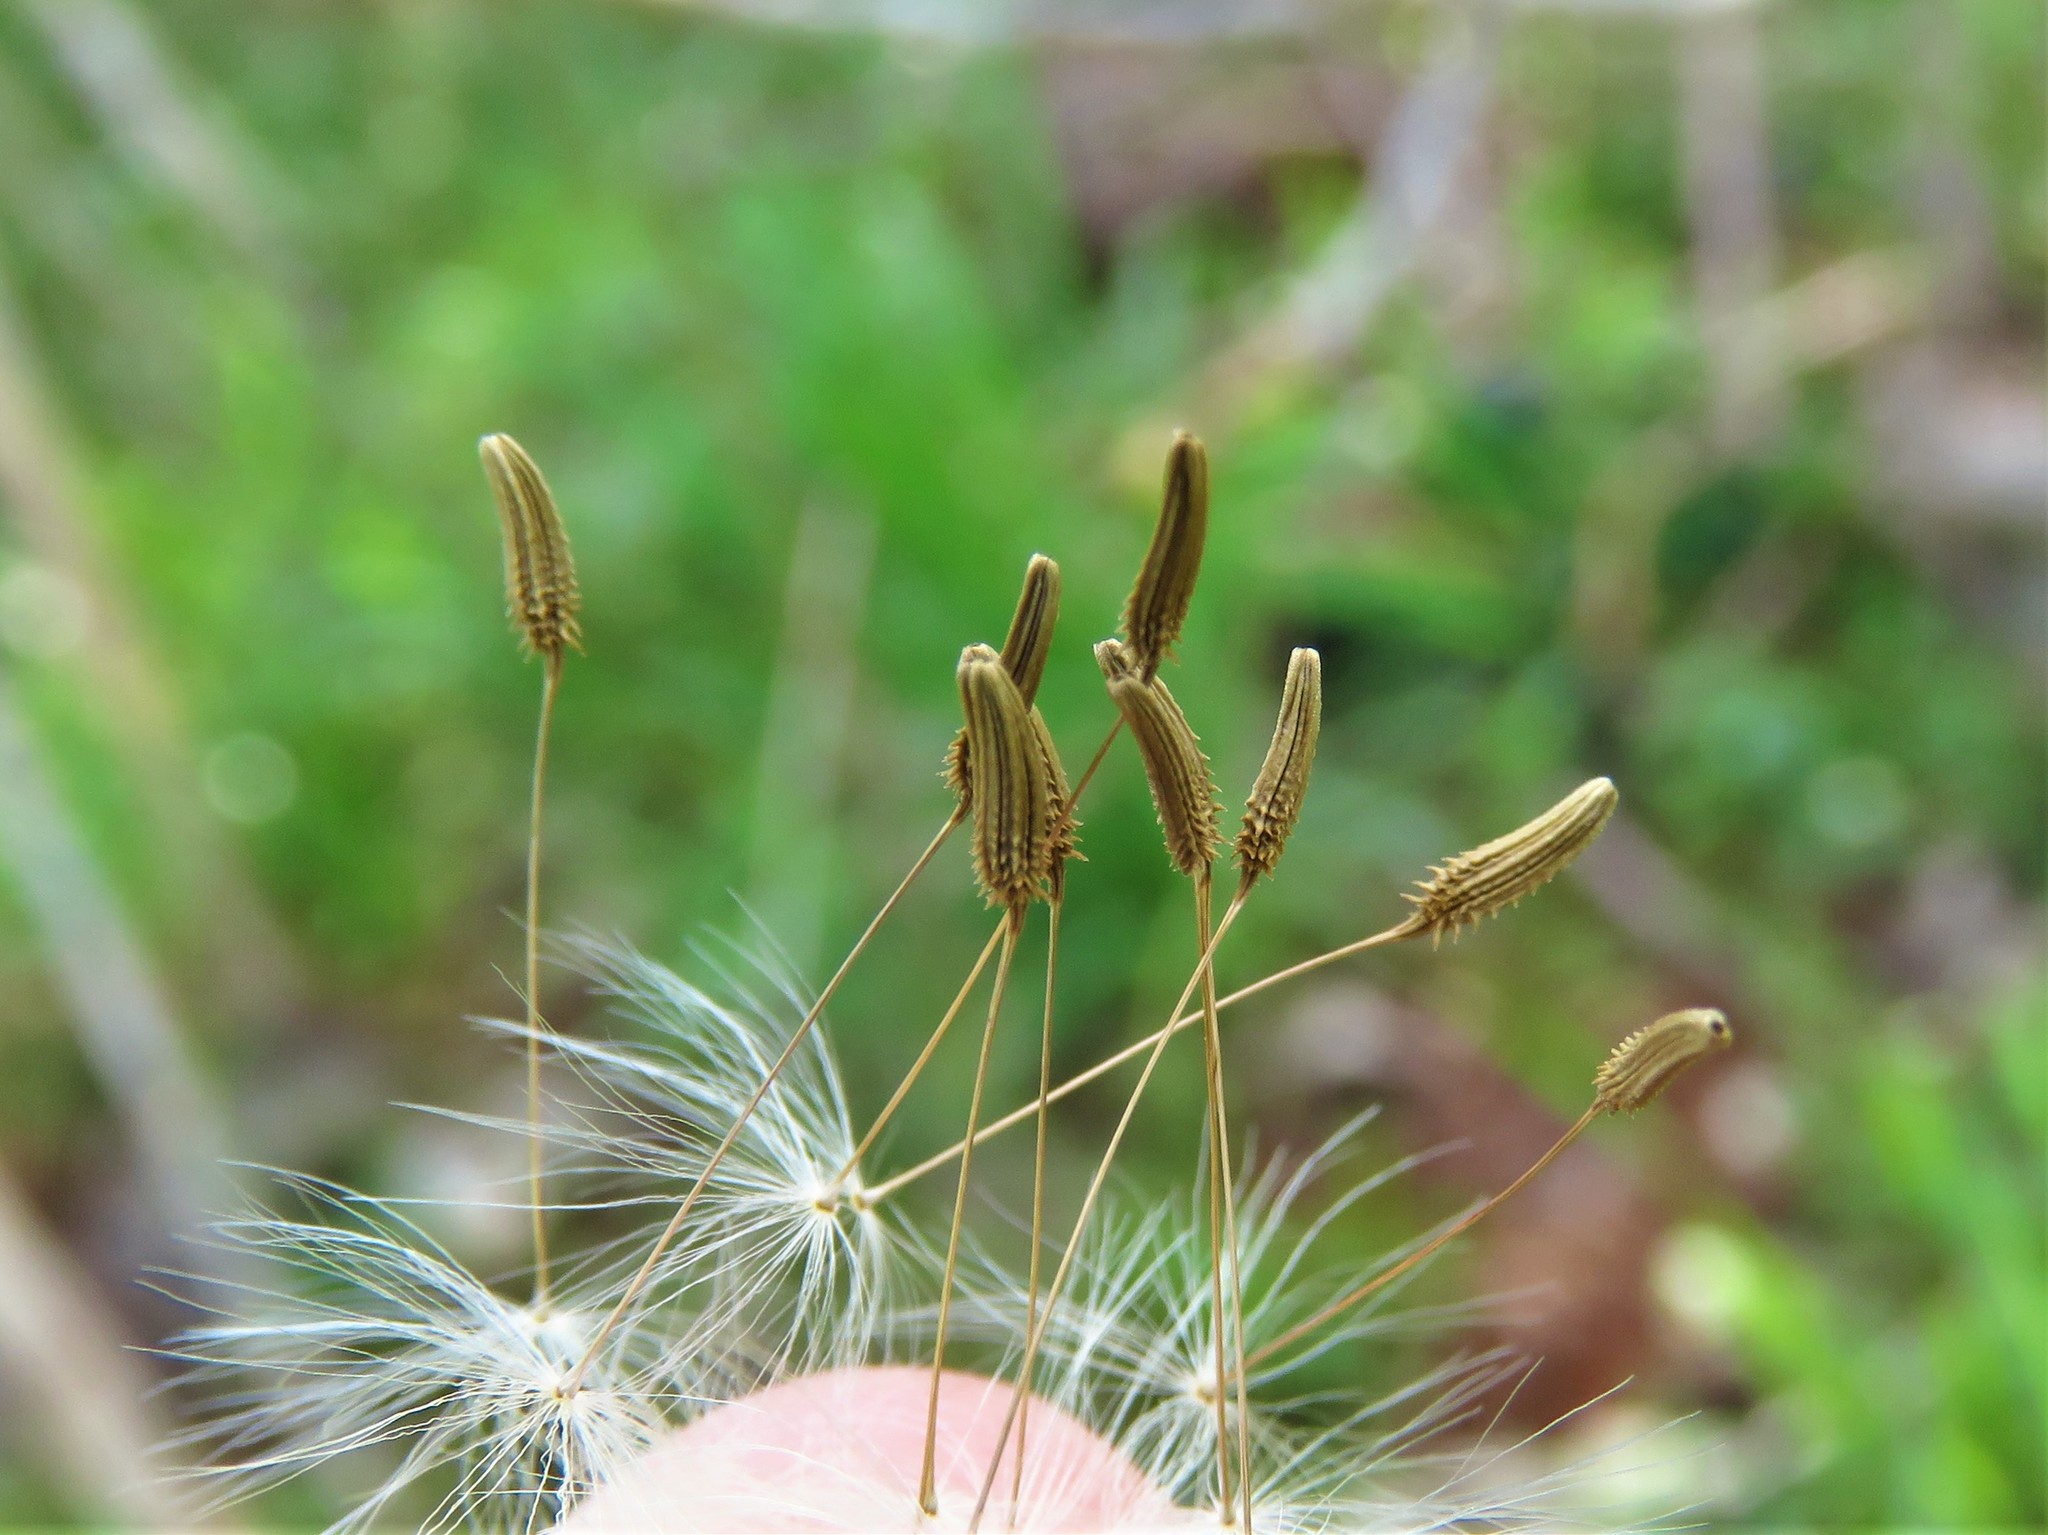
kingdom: Plantae
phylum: Tracheophyta
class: Magnoliopsida
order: Asterales
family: Asteraceae
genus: Taraxacum
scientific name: Taraxacum officinale
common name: Common dandelion
